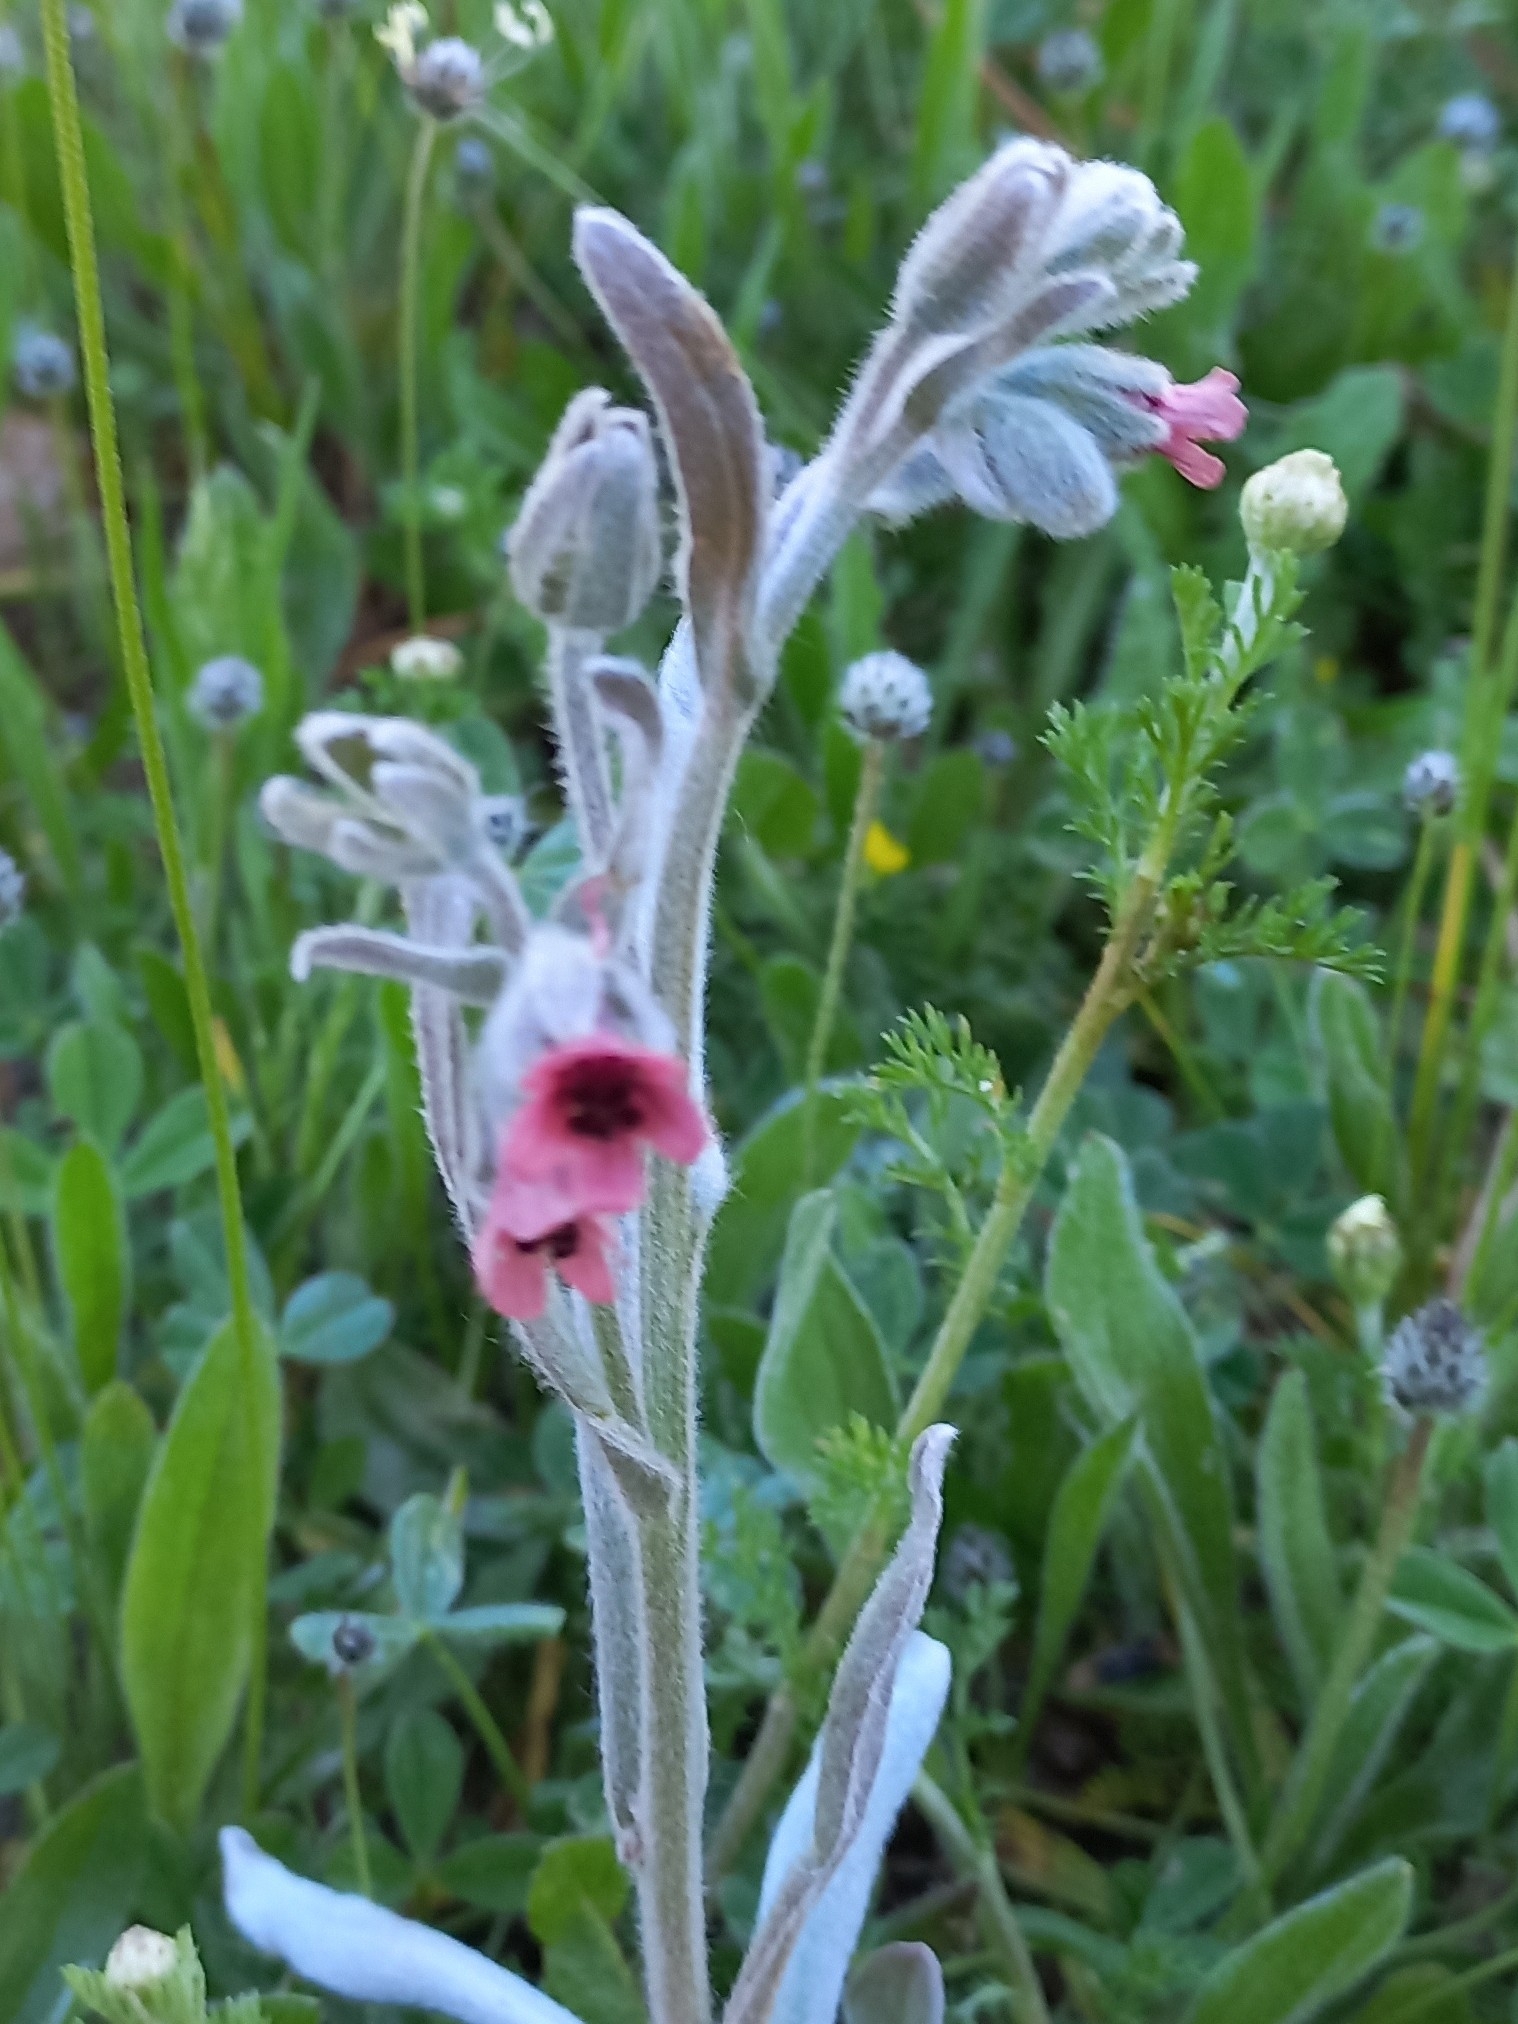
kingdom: Plantae
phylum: Tracheophyta
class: Magnoliopsida
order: Boraginales
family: Boraginaceae
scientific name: Boraginaceae
